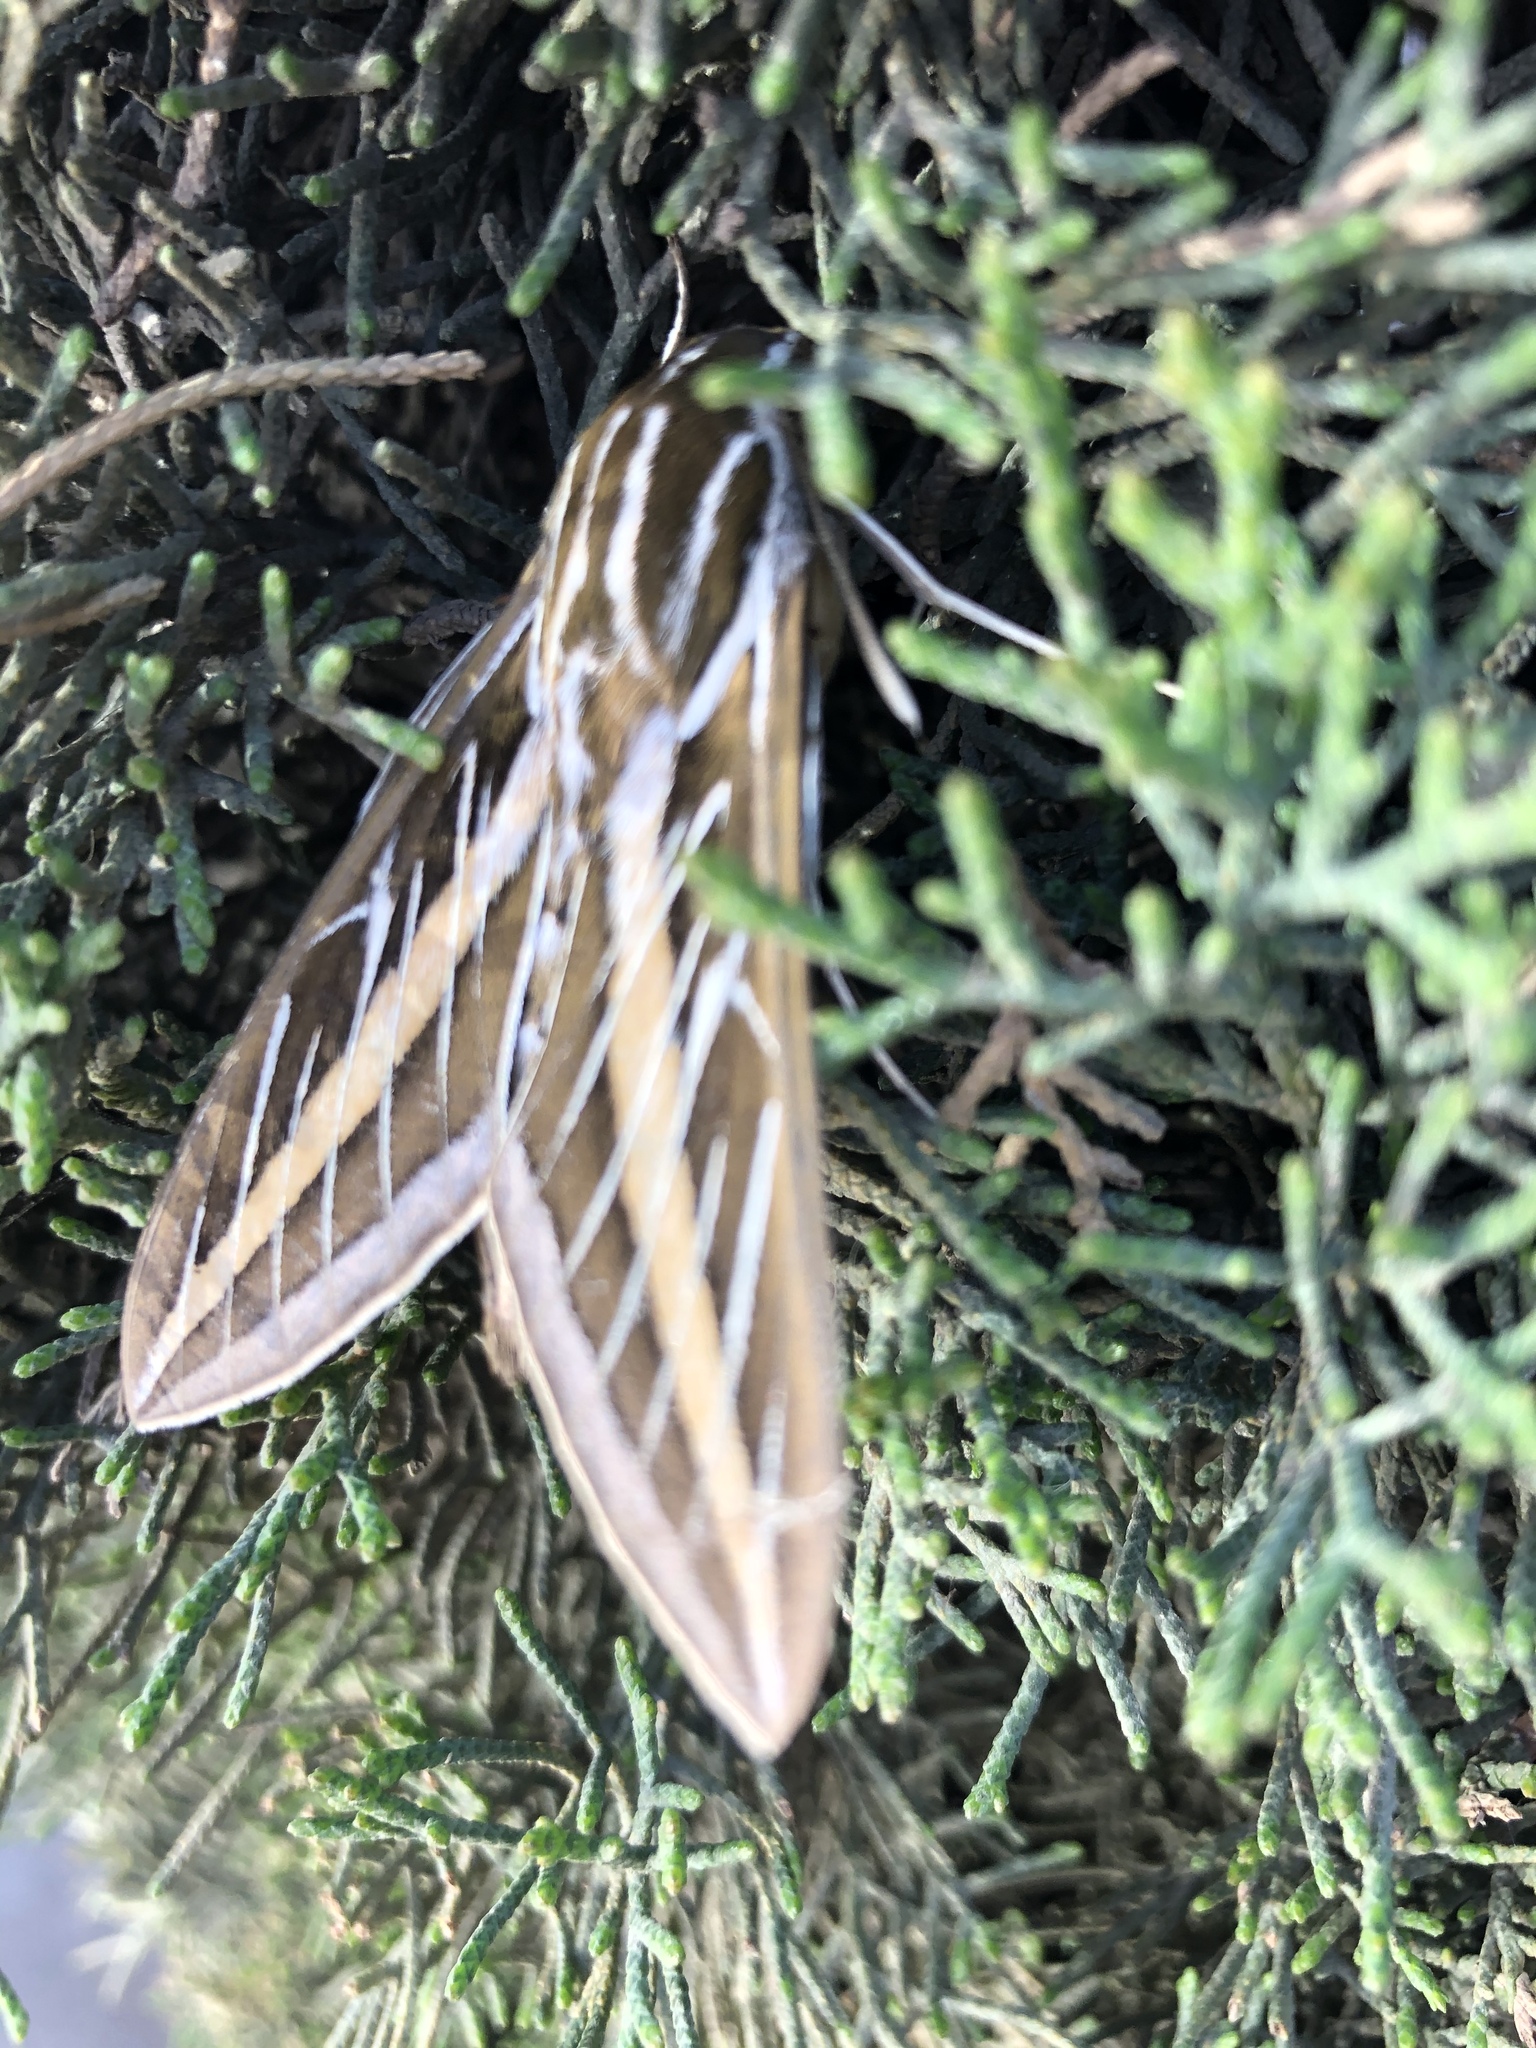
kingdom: Animalia
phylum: Arthropoda
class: Insecta
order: Lepidoptera
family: Sphingidae
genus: Hyles
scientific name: Hyles lineata
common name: White-lined sphinx
